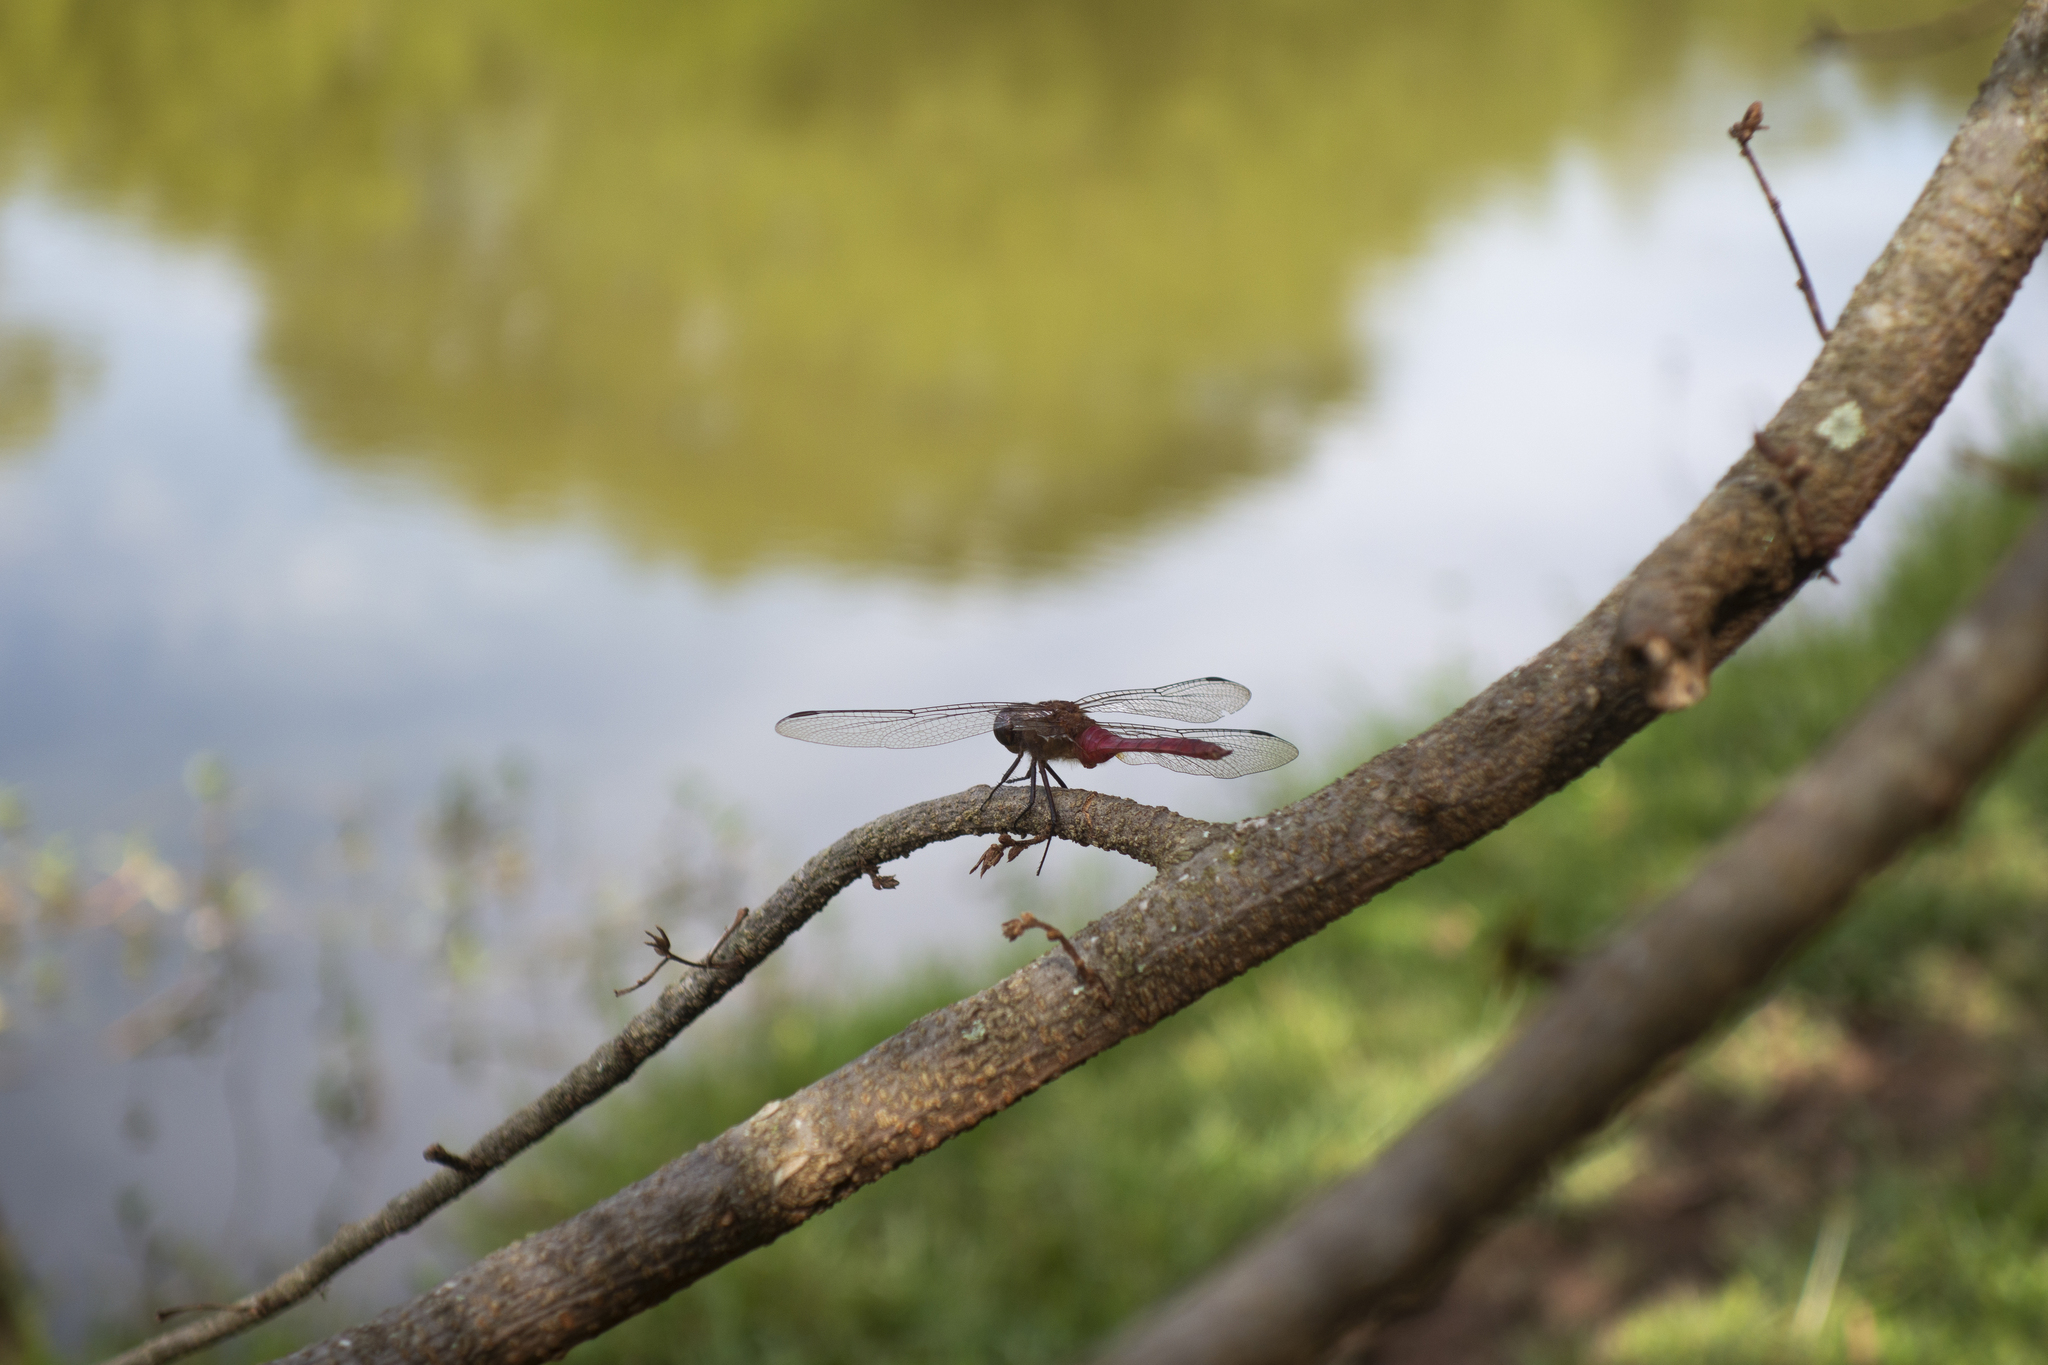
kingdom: Animalia
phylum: Arthropoda
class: Insecta
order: Odonata
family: Libellulidae
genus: Brachymesia
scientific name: Brachymesia furcata
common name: Red-taled pennant
